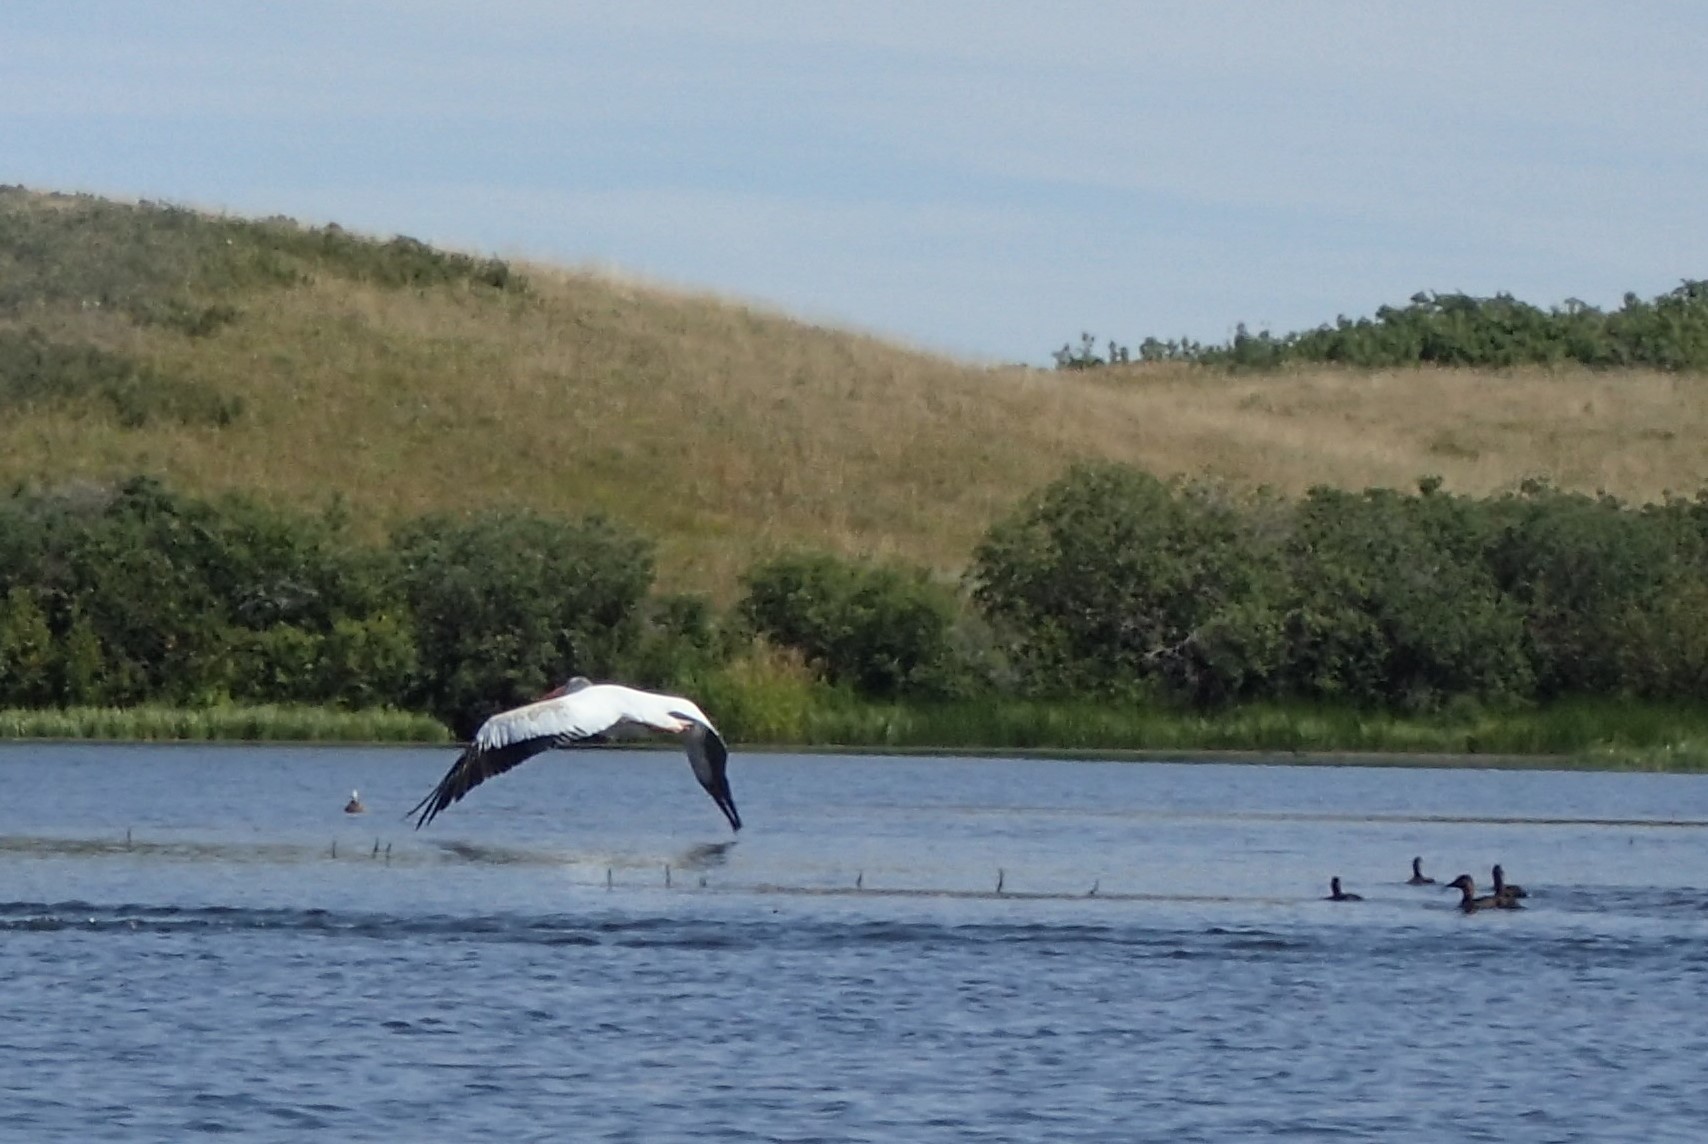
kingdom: Animalia
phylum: Chordata
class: Aves
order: Pelecaniformes
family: Pelecanidae
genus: Pelecanus
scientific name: Pelecanus erythrorhynchos
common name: American white pelican
